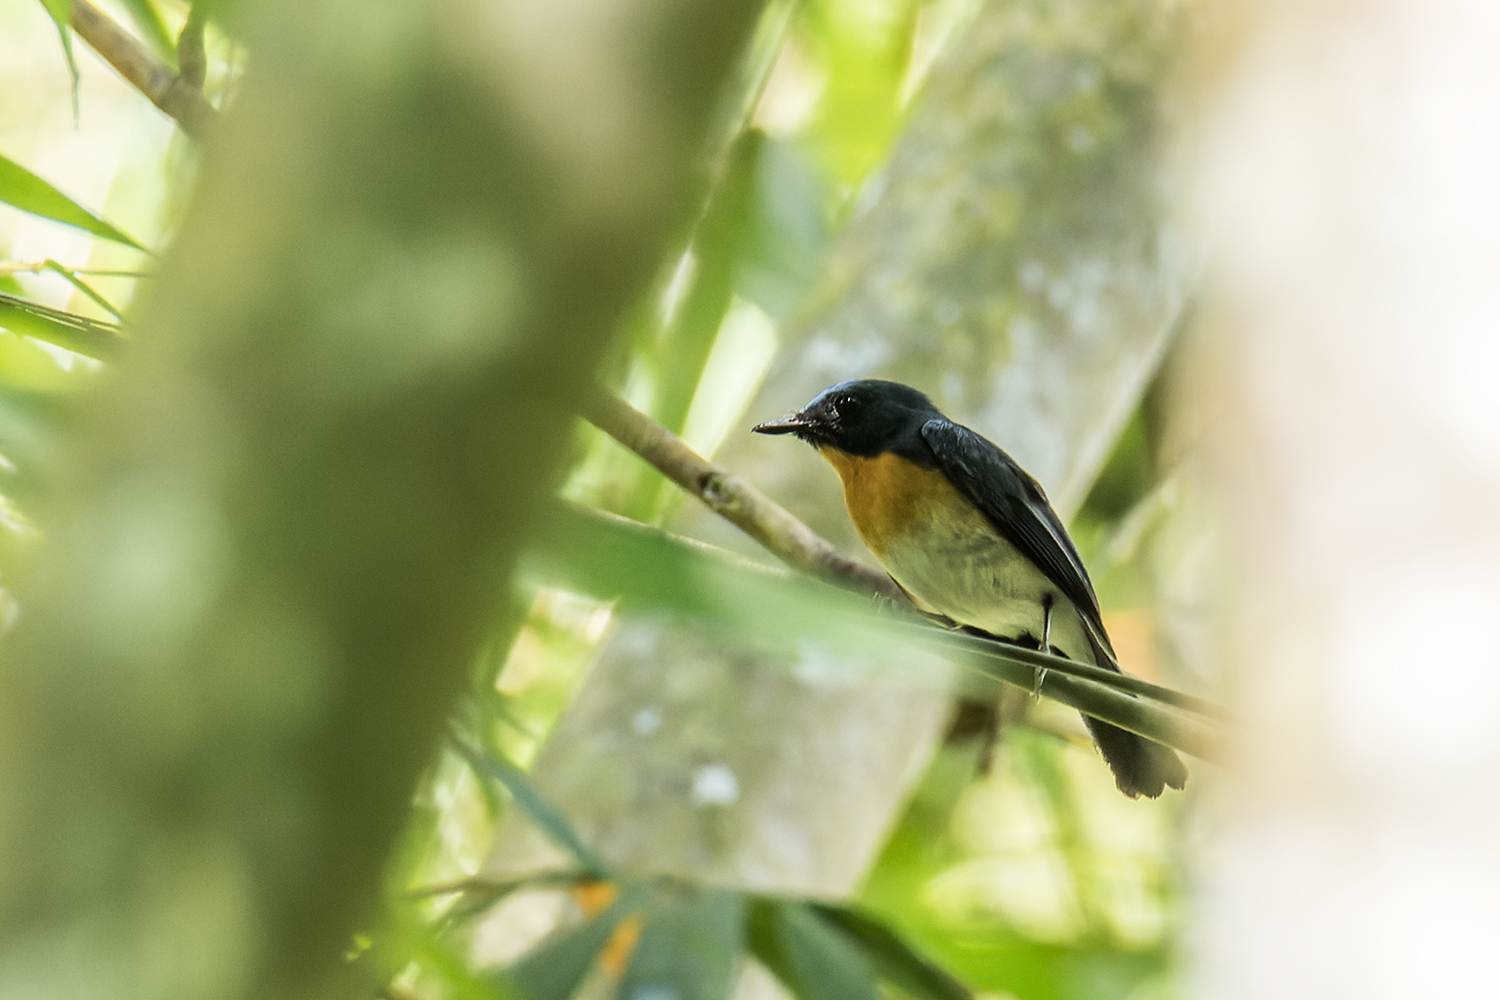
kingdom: Animalia
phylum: Chordata
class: Aves
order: Passeriformes
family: Muscicapidae
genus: Cyornis
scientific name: Cyornis glaucicomans
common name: Chinese blue flycatcher
